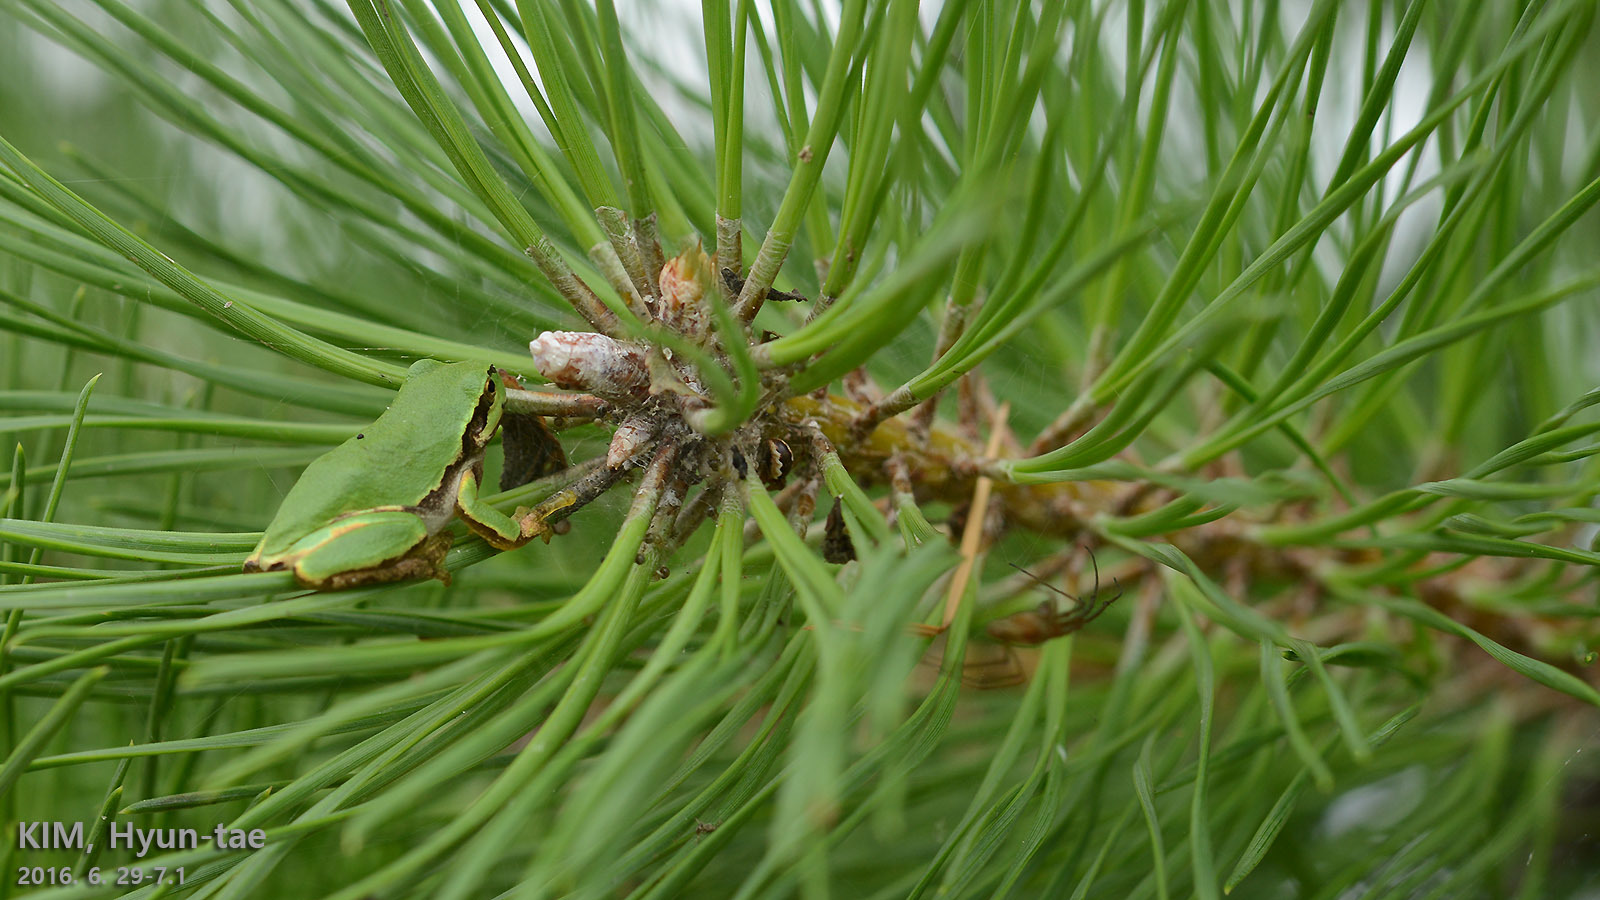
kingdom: Animalia
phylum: Chordata
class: Amphibia
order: Anura
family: Hylidae
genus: Dryophytes
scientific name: Dryophytes japonicus
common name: Japanese treefrog
